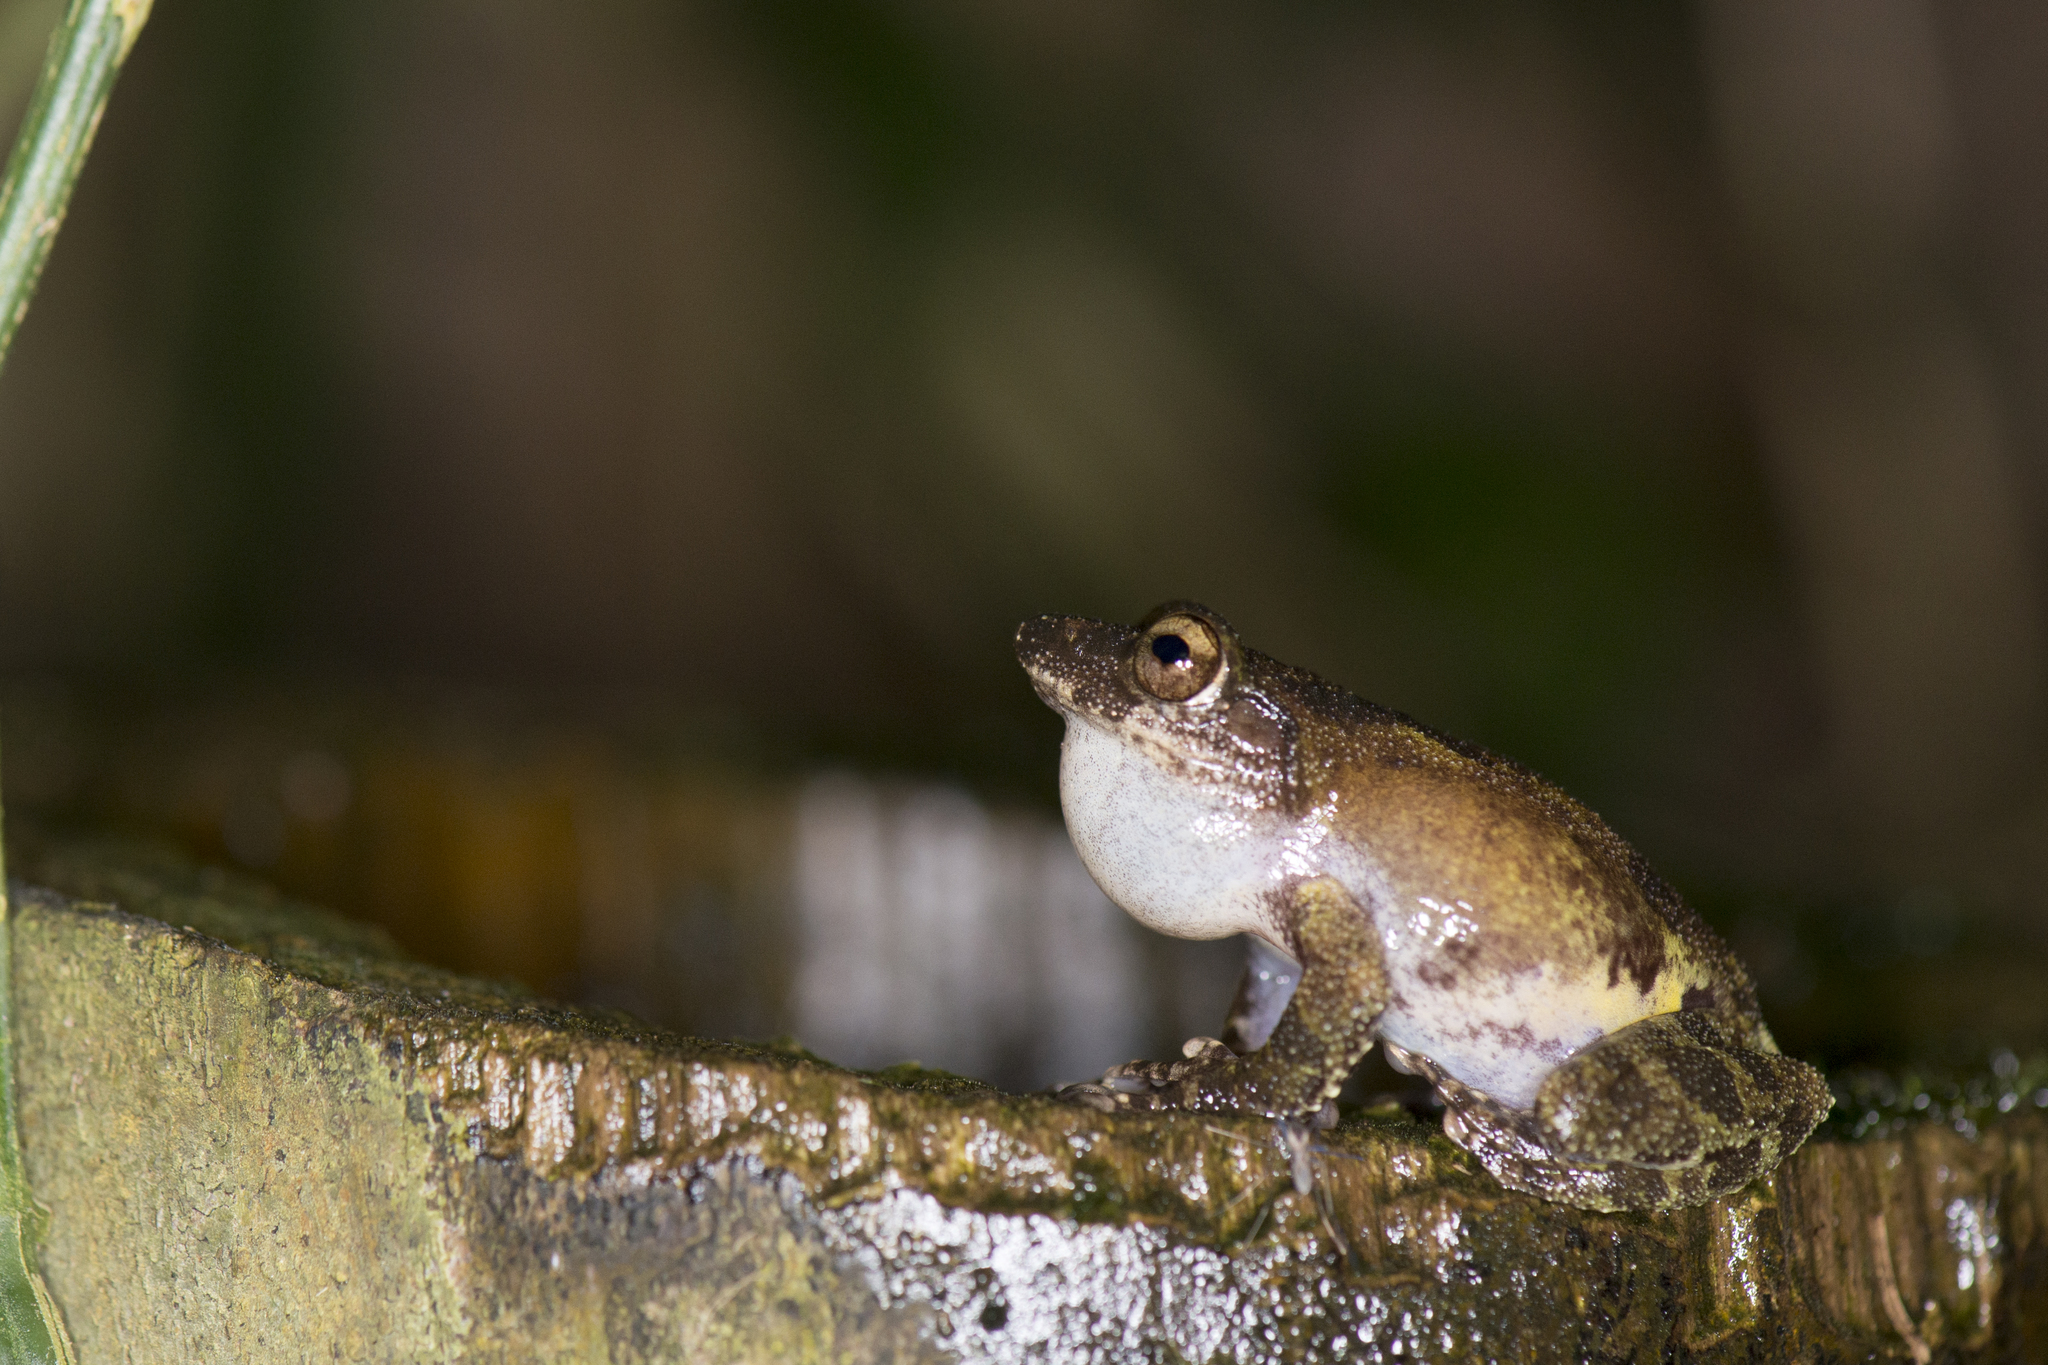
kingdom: Animalia
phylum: Chordata
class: Amphibia
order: Anura
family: Rhacophoridae
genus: Kurixalus
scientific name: Kurixalus eiffingeri
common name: Eiffinger’s treefrog
